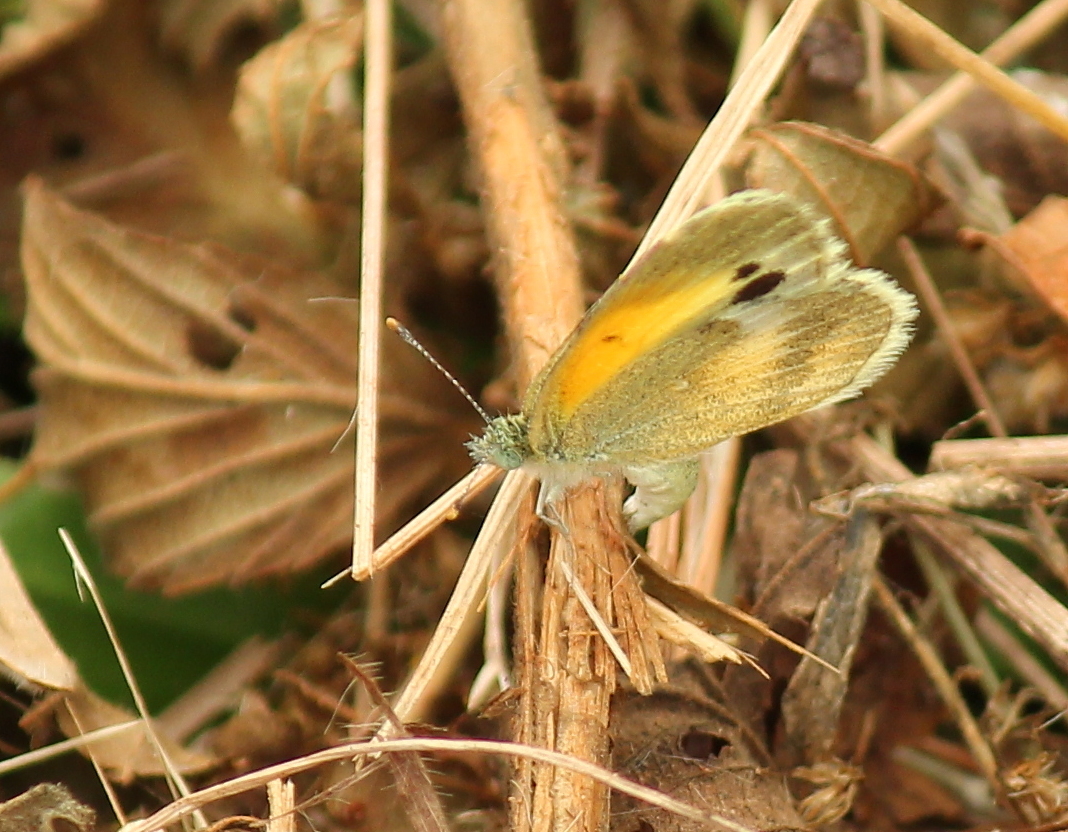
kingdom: Animalia
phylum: Arthropoda
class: Insecta
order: Lepidoptera
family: Pieridae
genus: Nathalis
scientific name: Nathalis iole
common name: Dainty sulphur
